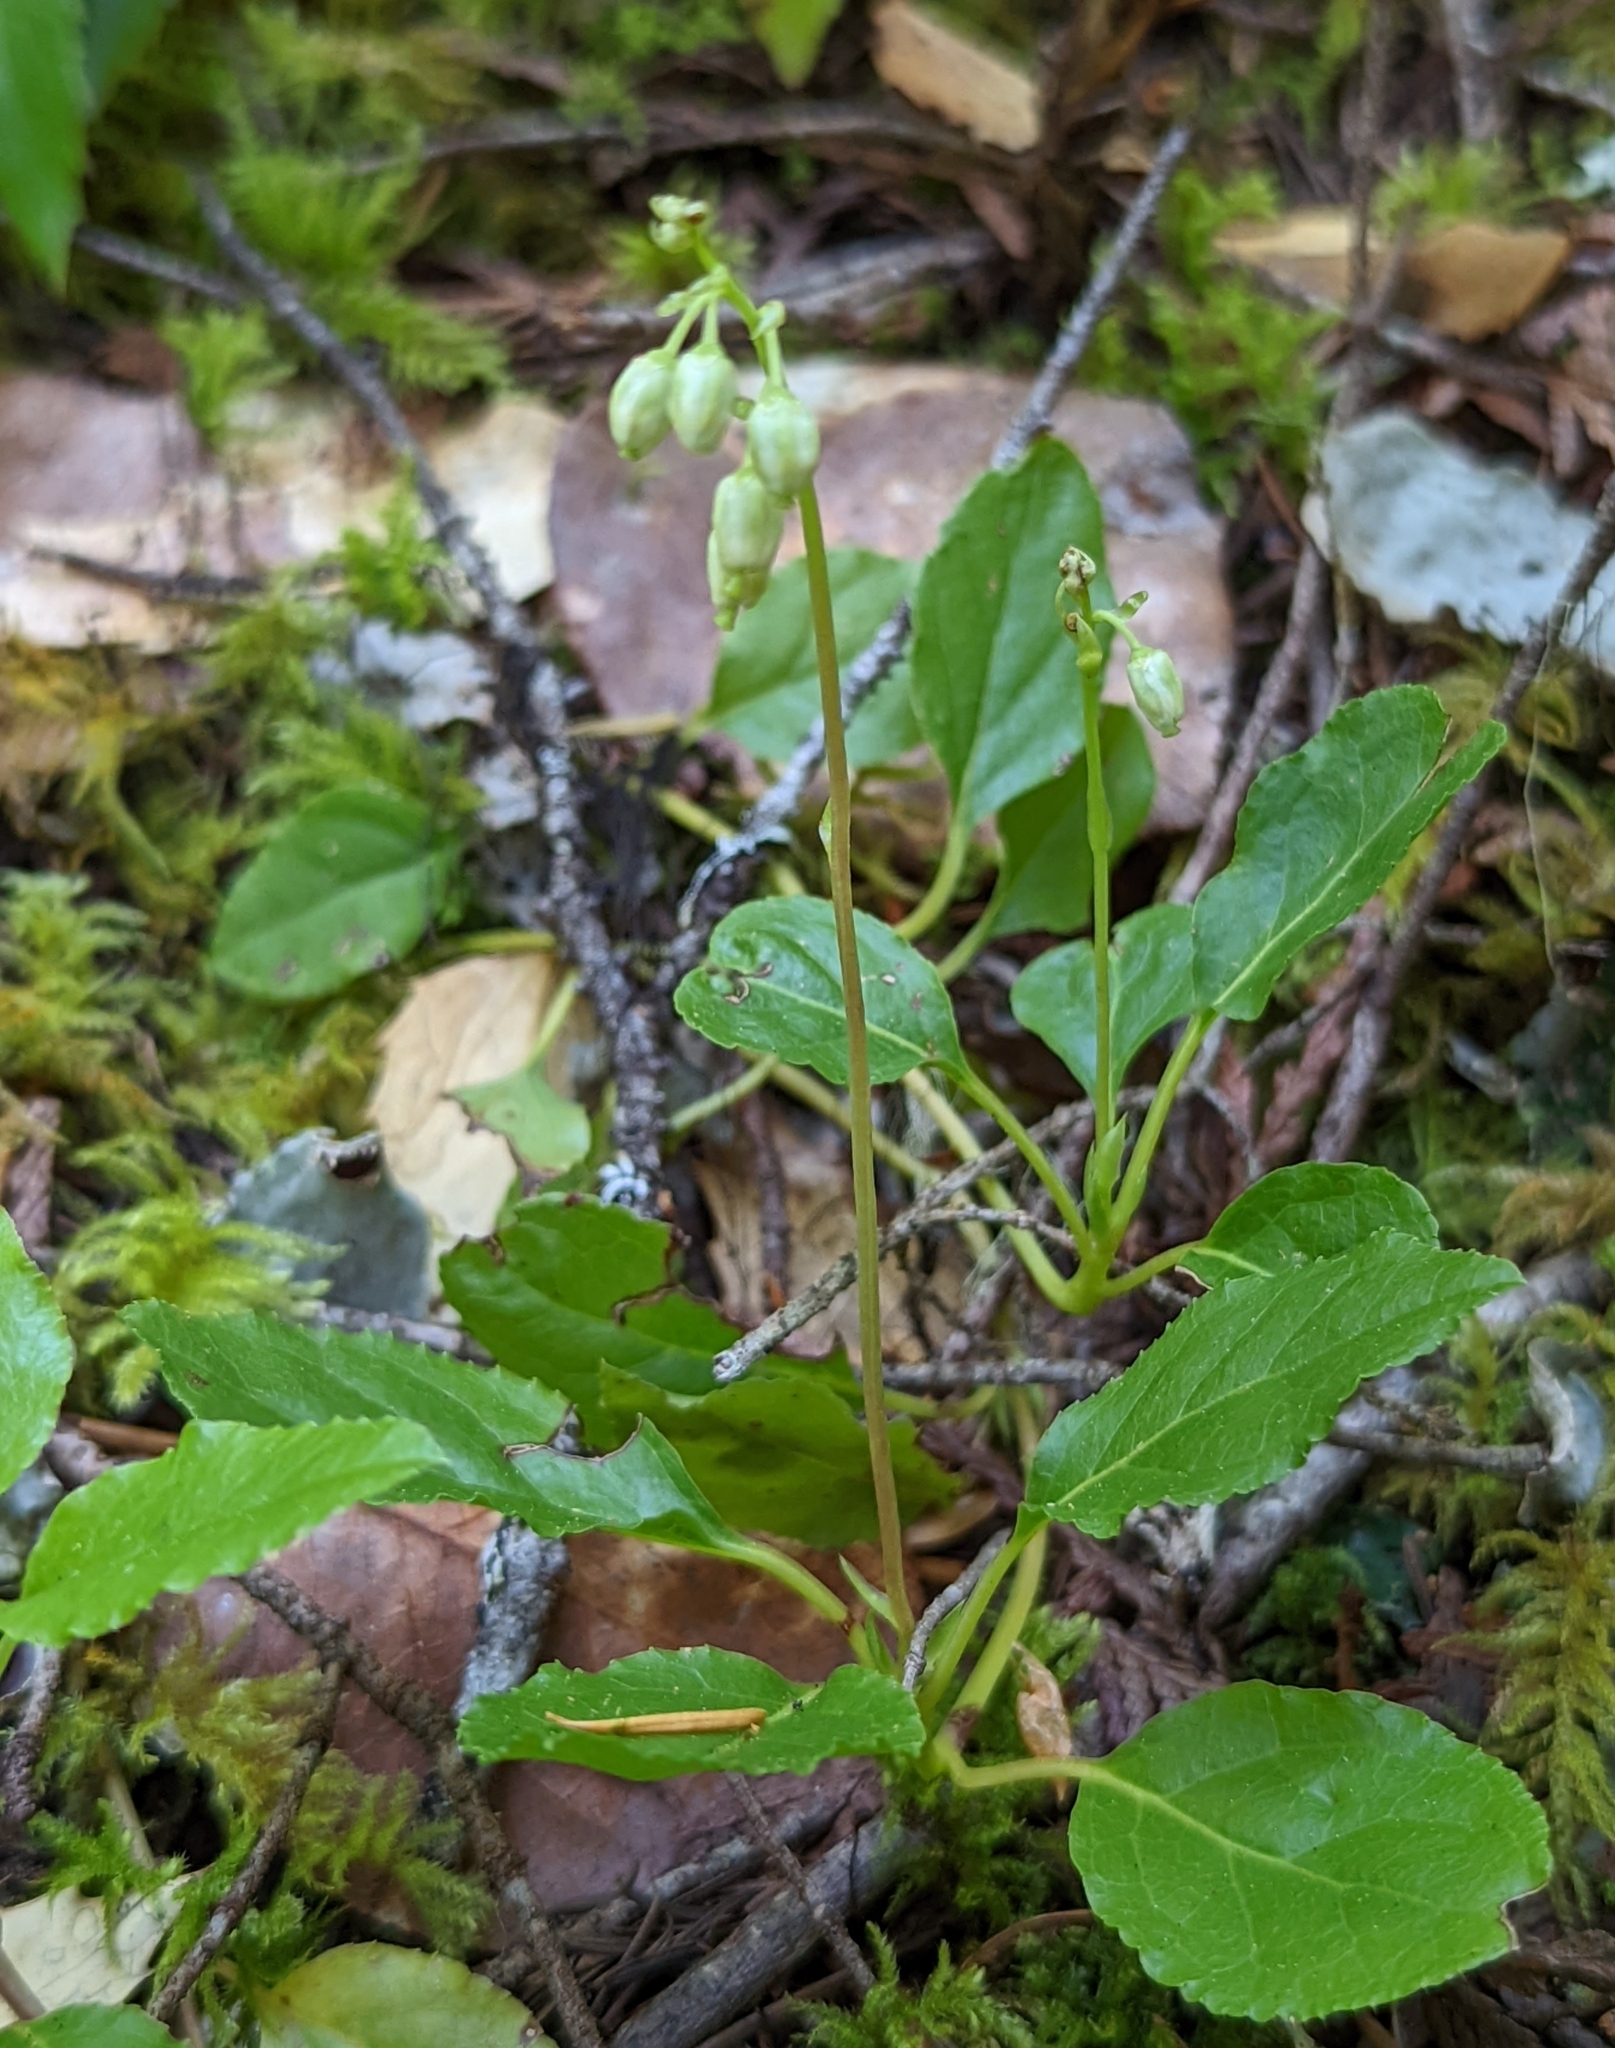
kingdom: Plantae
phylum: Tracheophyta
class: Magnoliopsida
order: Ericales
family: Ericaceae
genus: Orthilia
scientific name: Orthilia secunda
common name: One-sided orthilia
